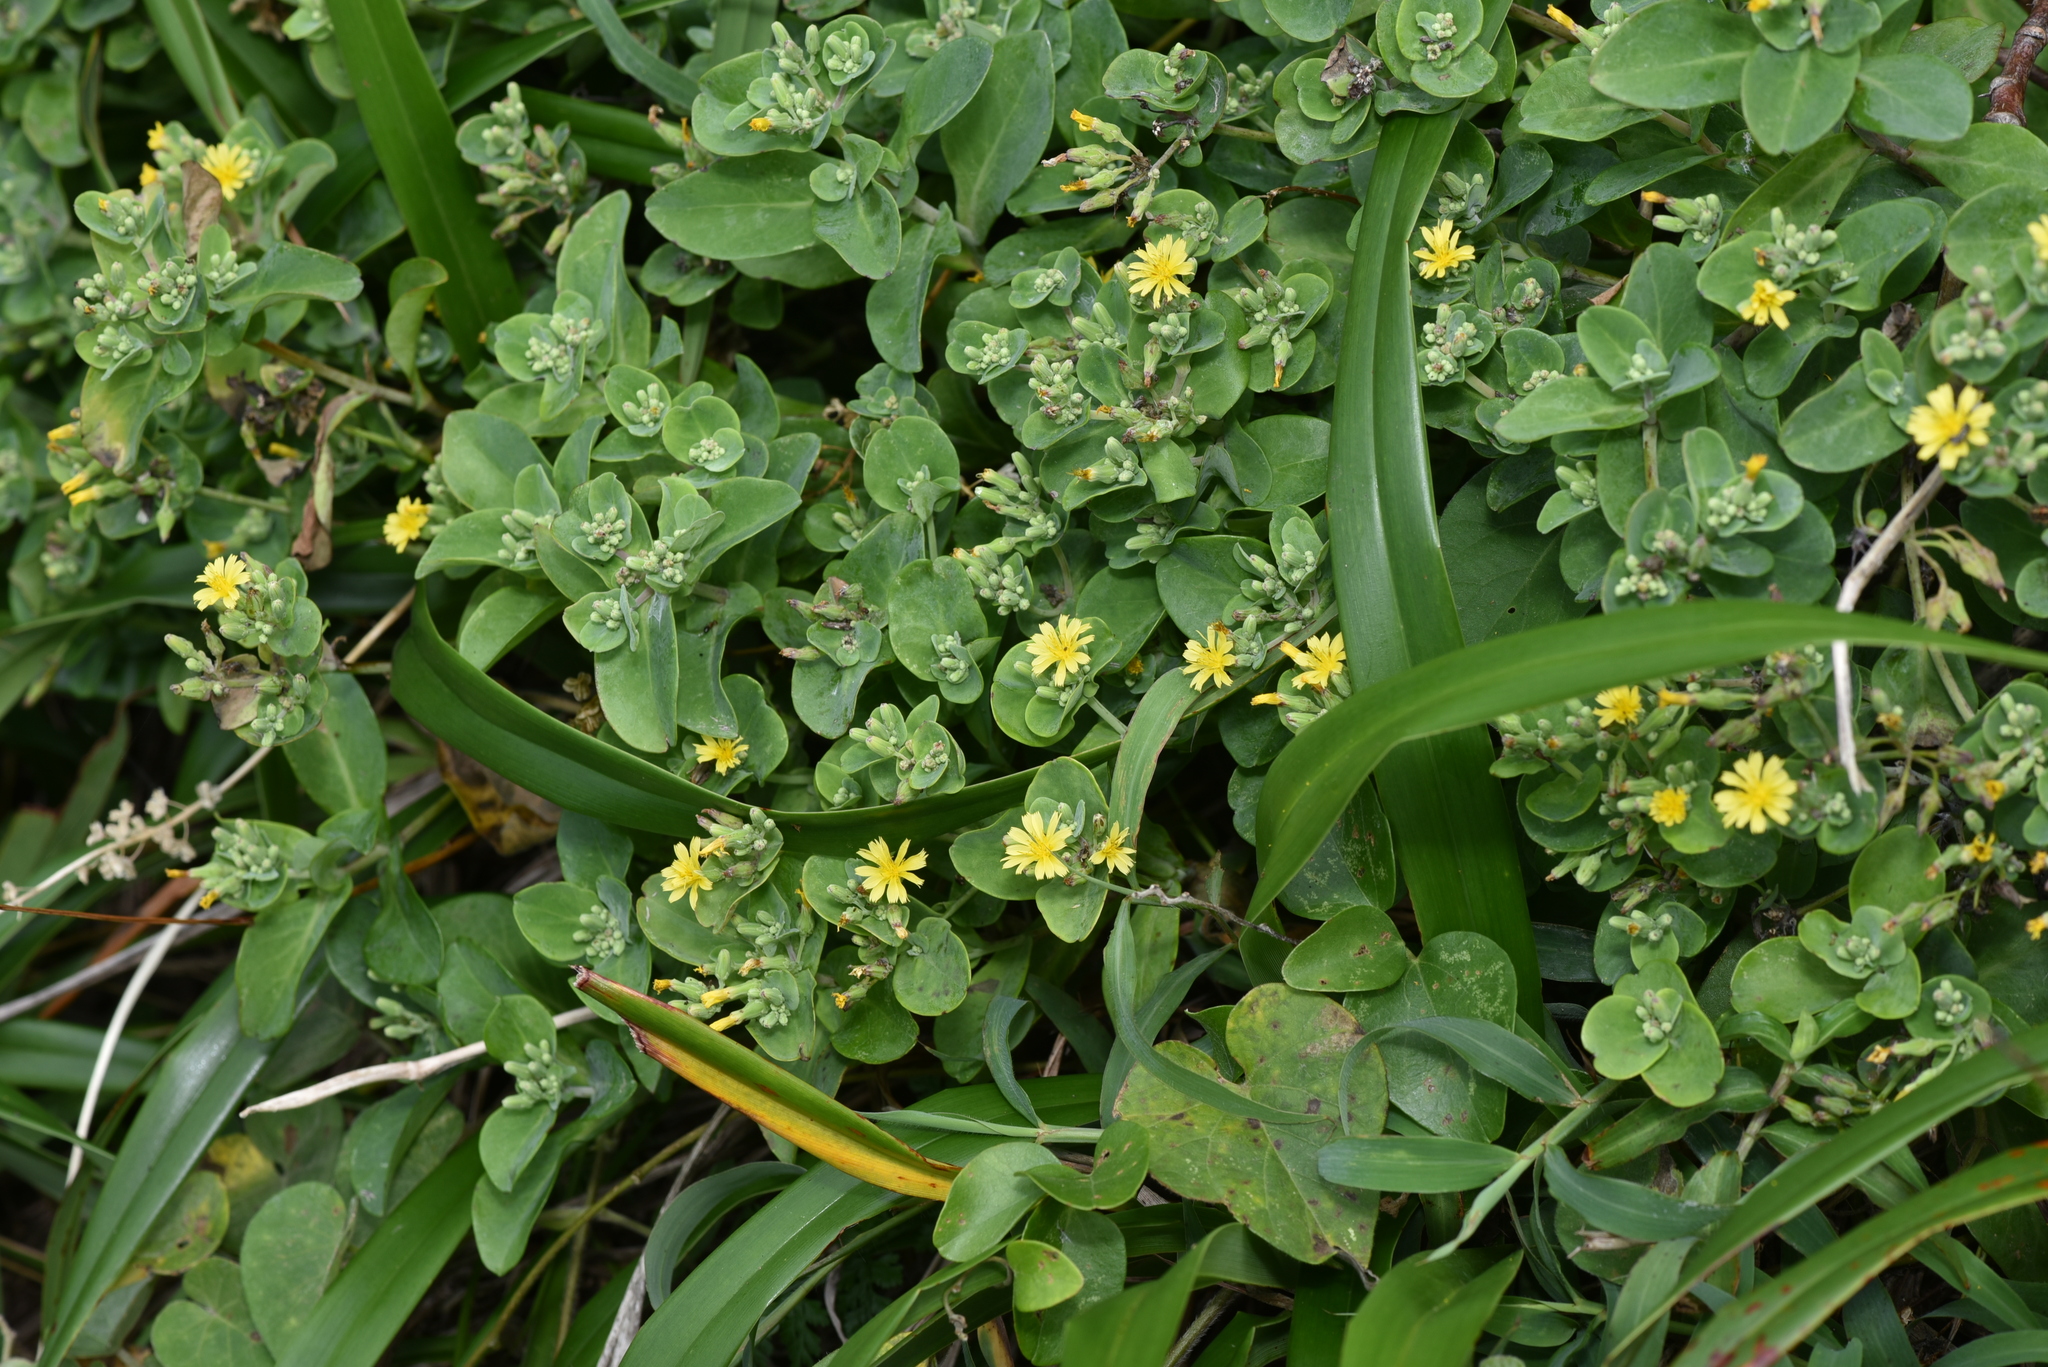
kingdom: Plantae
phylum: Tracheophyta
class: Magnoliopsida
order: Asterales
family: Asteraceae
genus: Crepidiastrum
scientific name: Crepidiastrum taiwanianum
